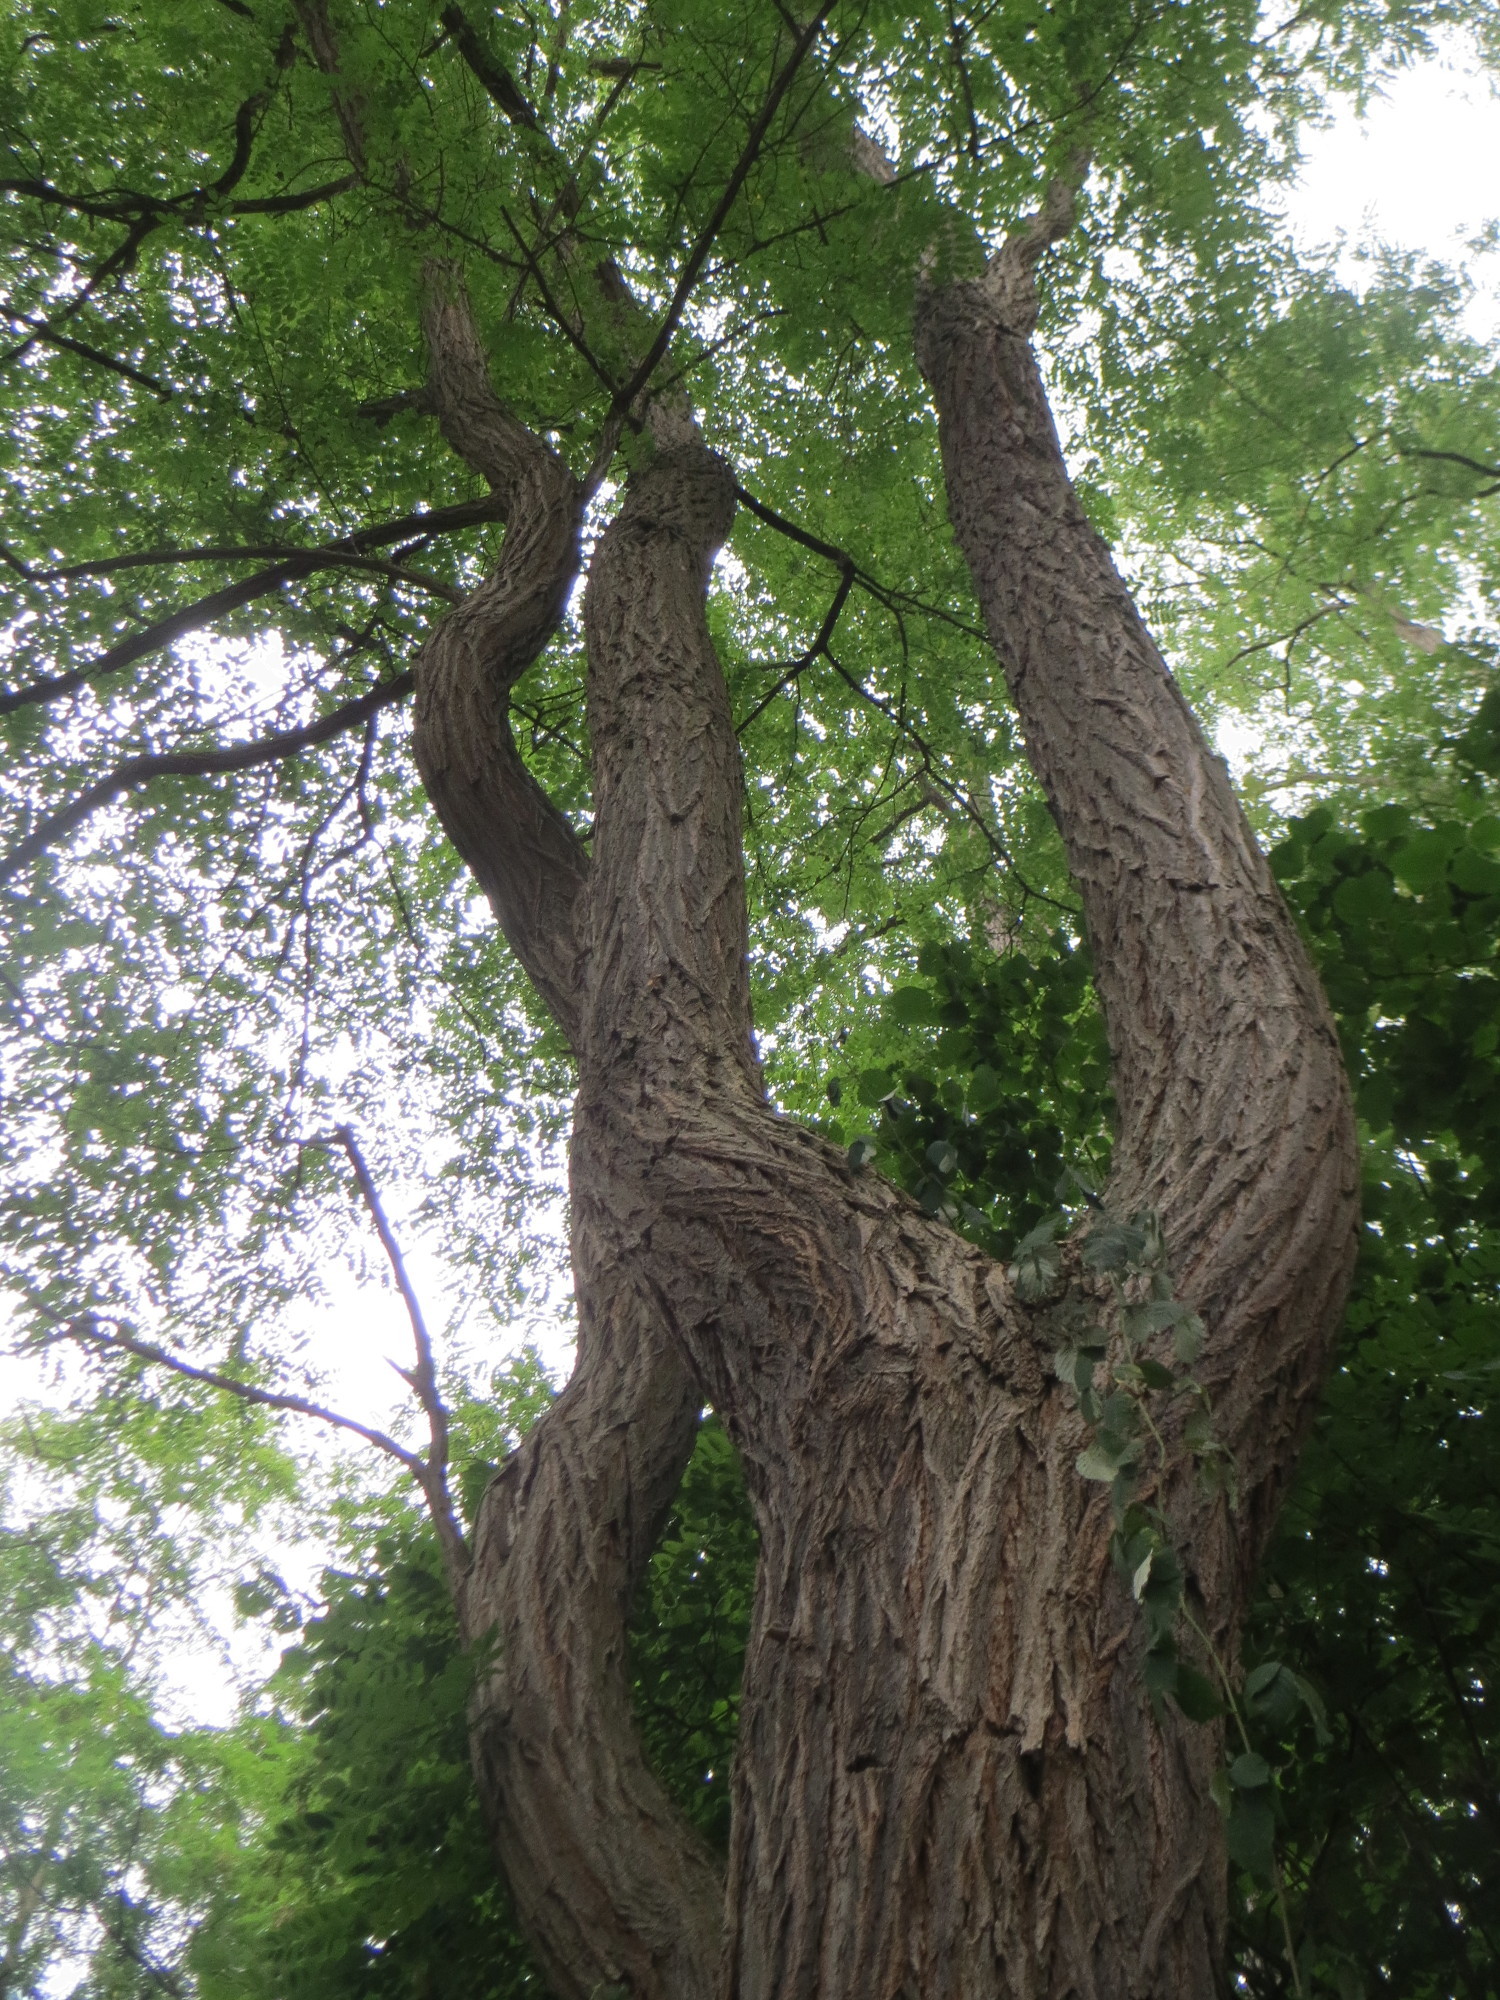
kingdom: Plantae
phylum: Tracheophyta
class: Magnoliopsida
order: Fabales
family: Fabaceae
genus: Robinia
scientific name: Robinia pseudoacacia
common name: Black locust
